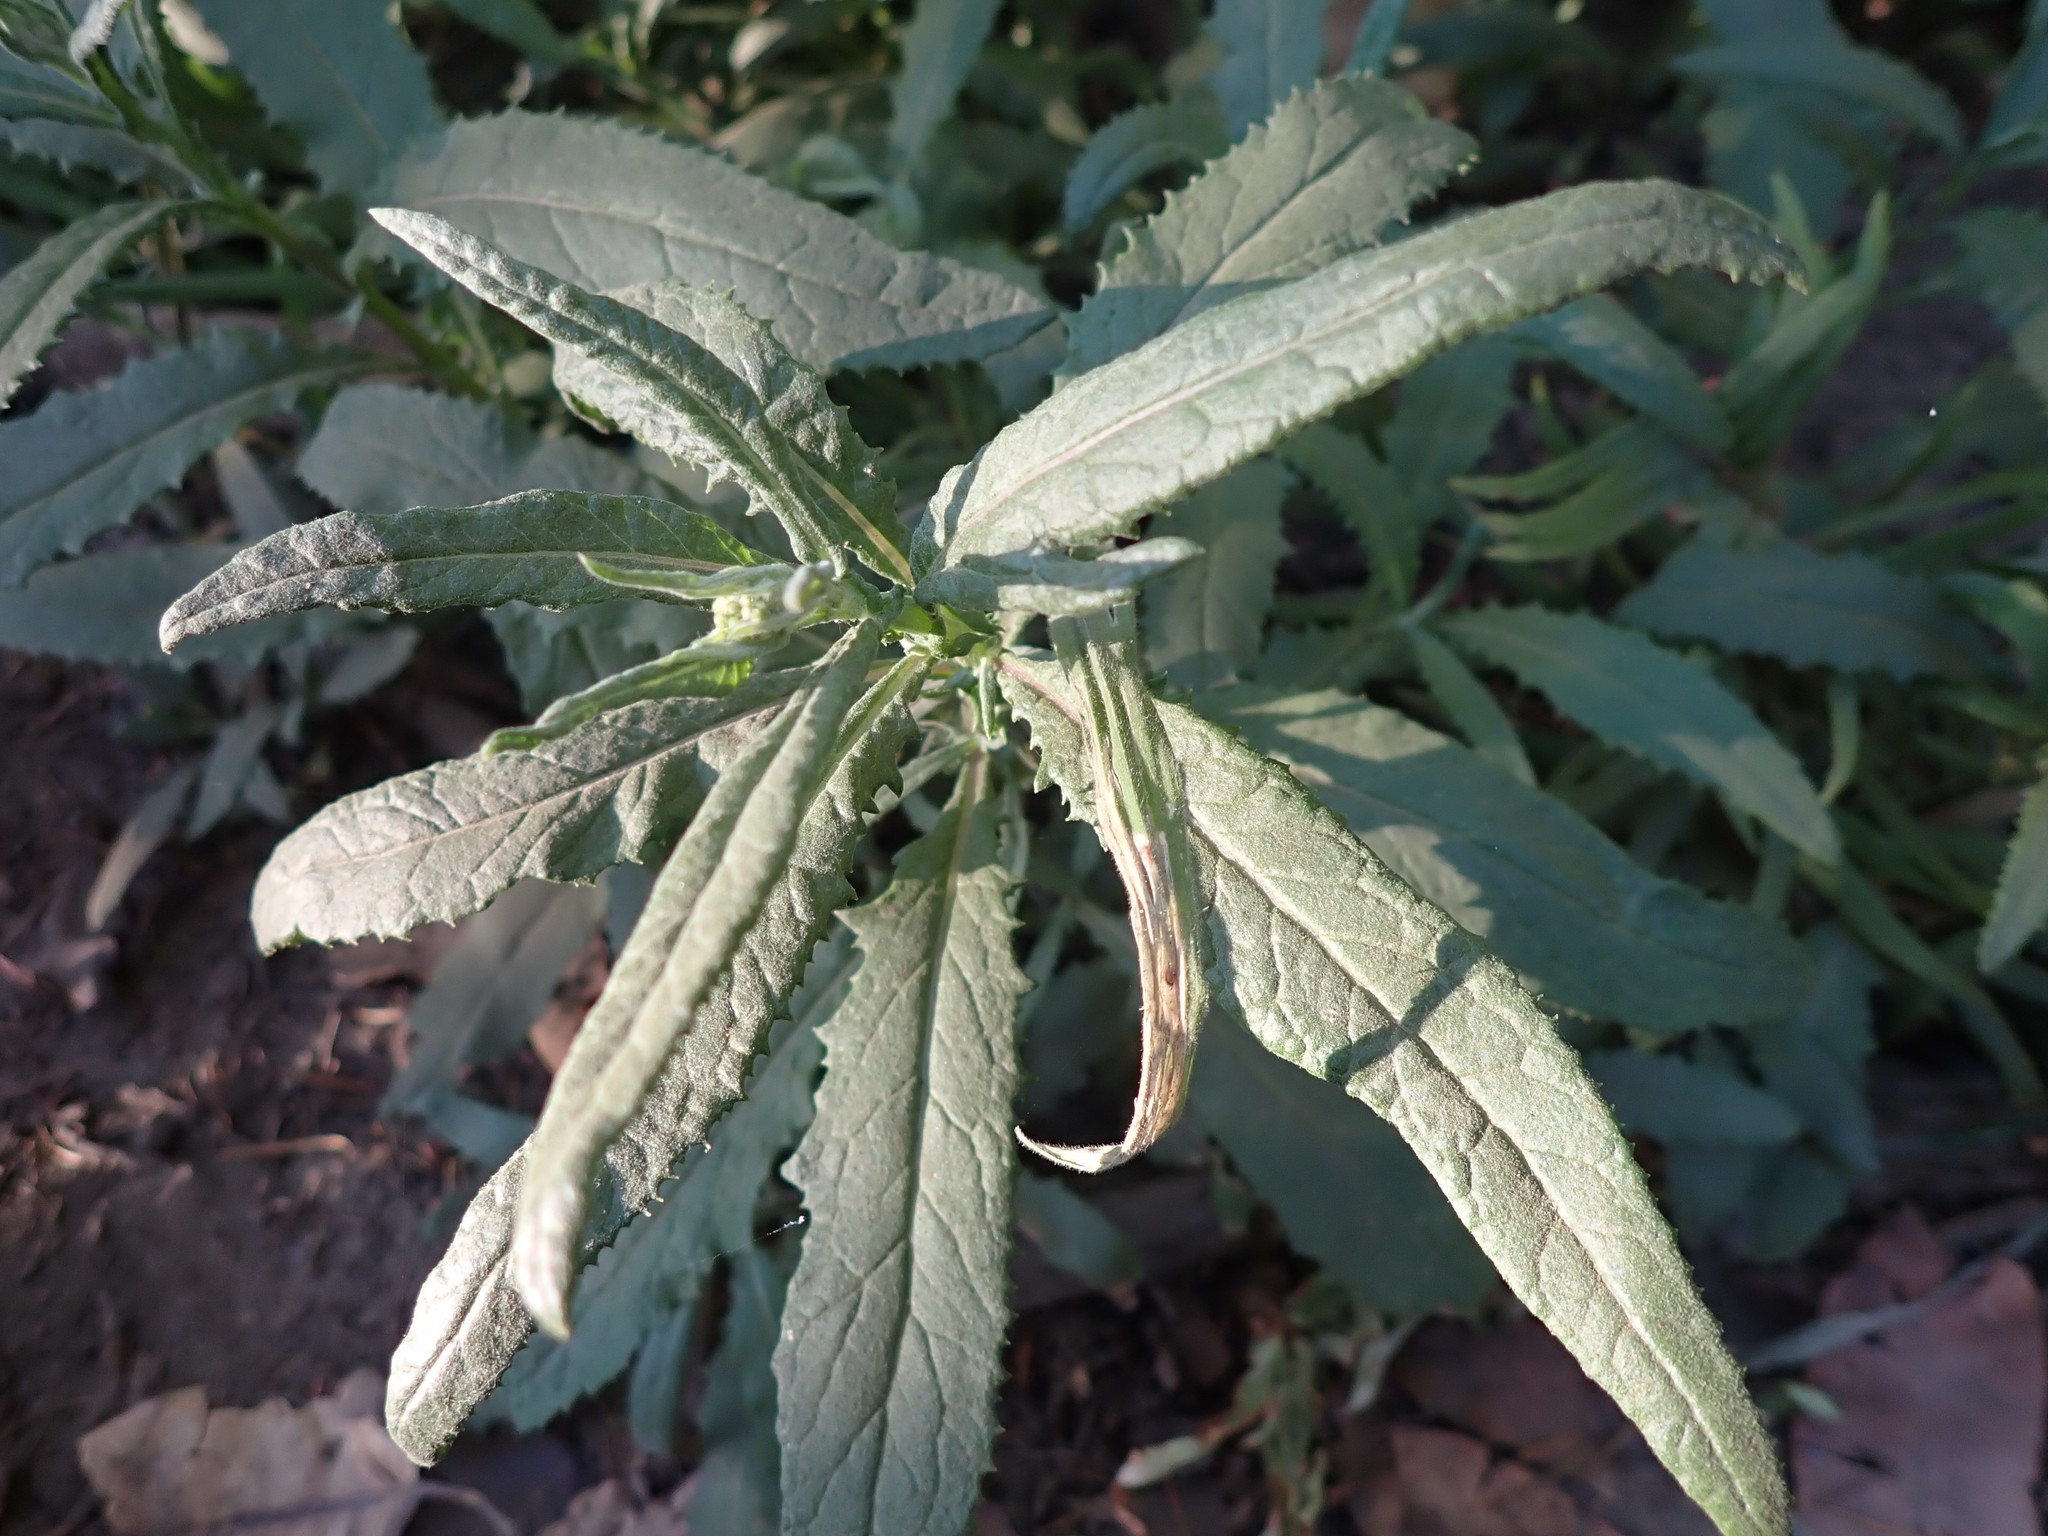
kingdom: Plantae
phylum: Tracheophyta
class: Magnoliopsida
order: Asterales
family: Asteraceae
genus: Senecio
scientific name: Senecio minimus
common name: Toothed fireweed
